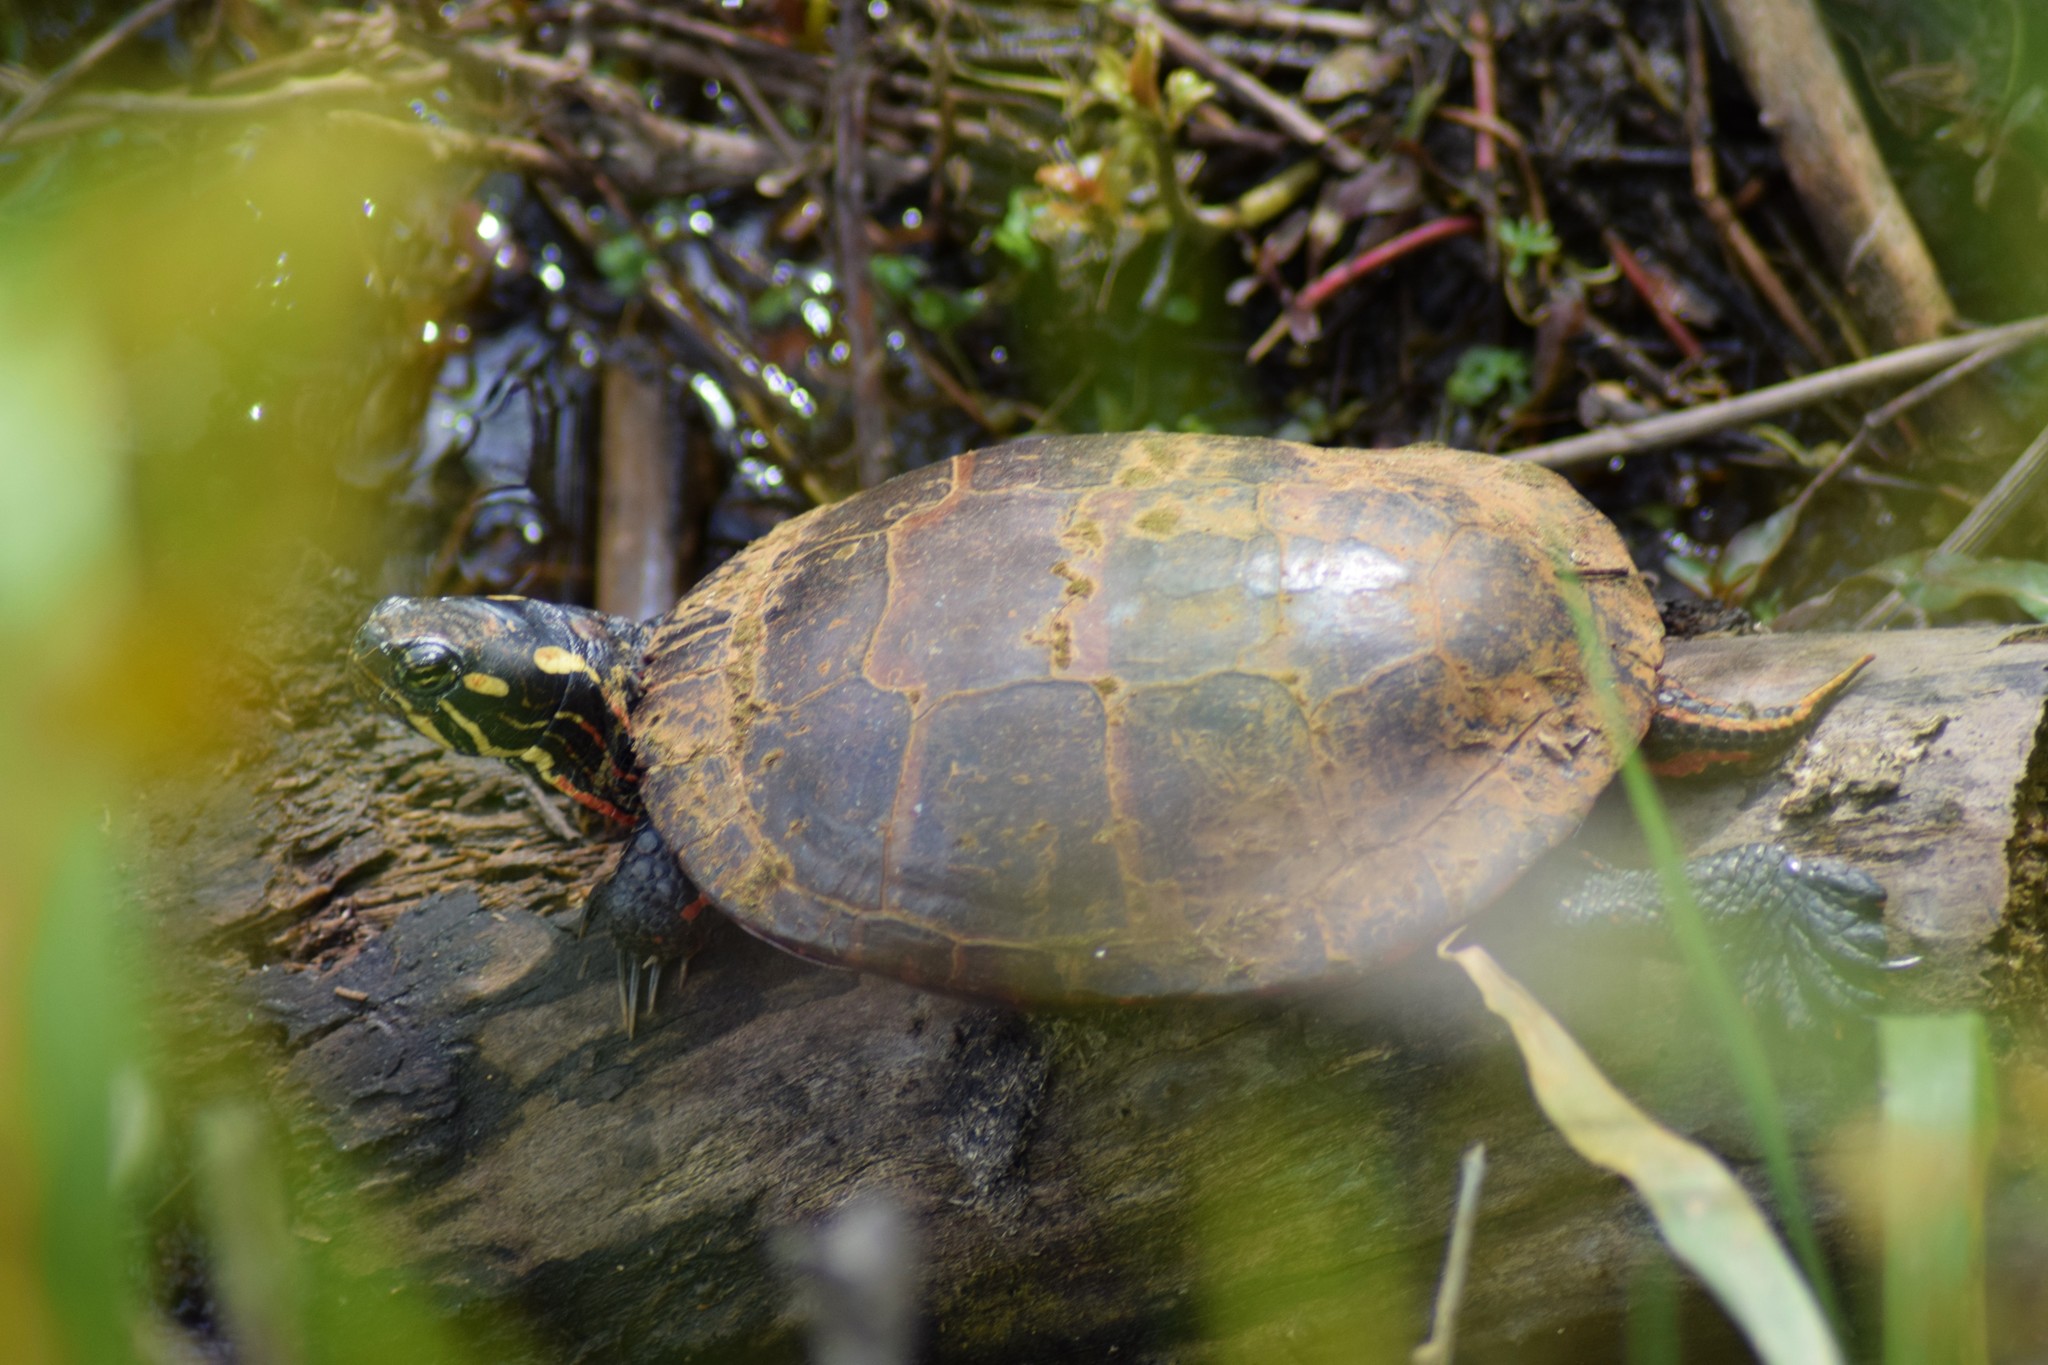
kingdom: Animalia
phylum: Chordata
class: Testudines
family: Emydidae
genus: Chrysemys
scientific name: Chrysemys picta
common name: Painted turtle
